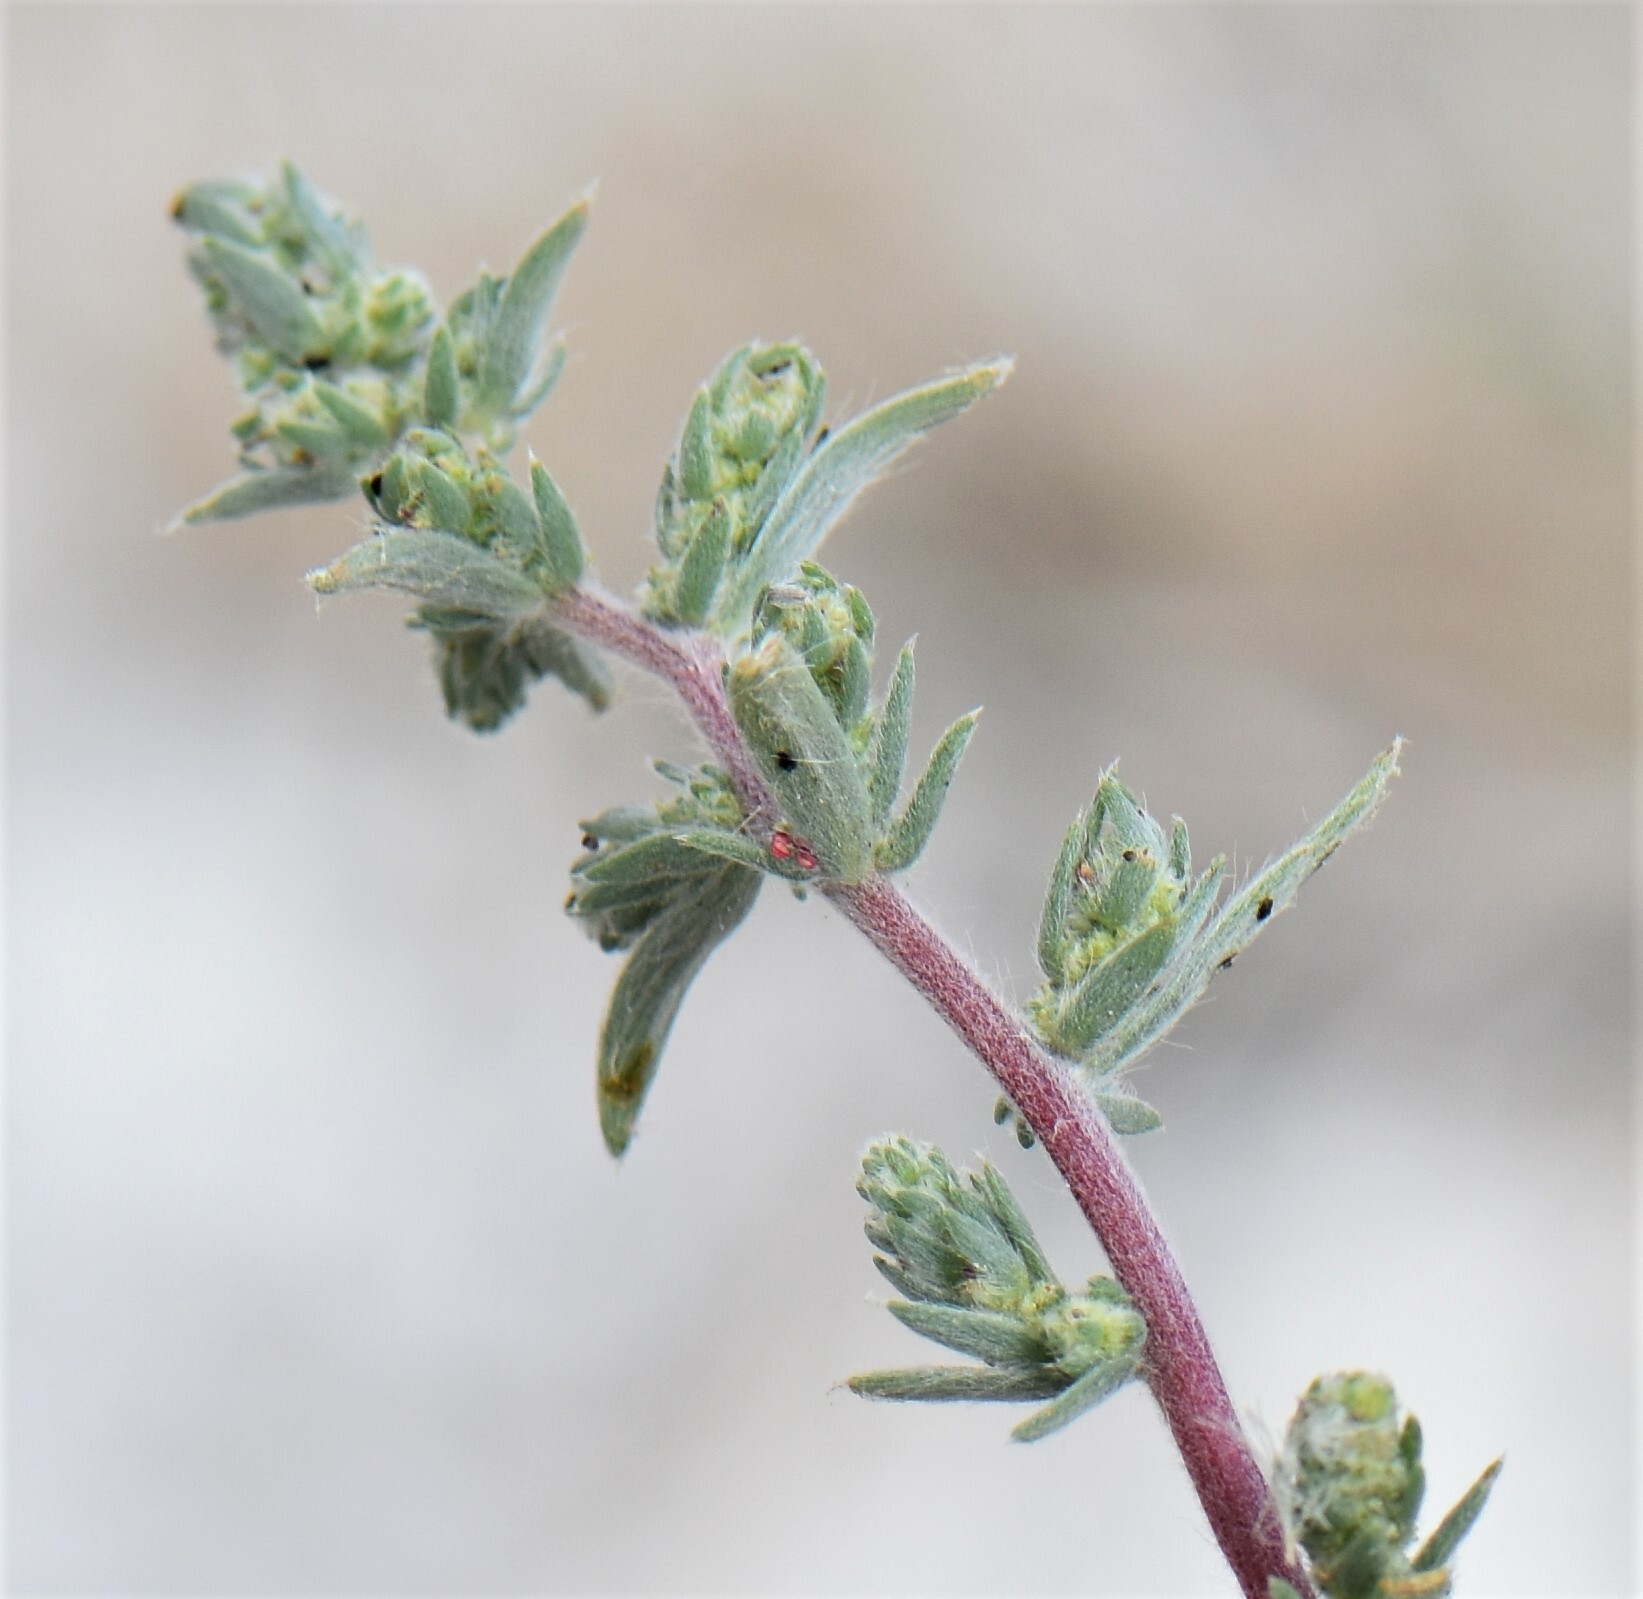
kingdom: Plantae
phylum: Tracheophyta
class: Magnoliopsida
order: Caryophyllales
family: Amaranthaceae
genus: Bassia
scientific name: Bassia scoparia
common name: Belvedere
